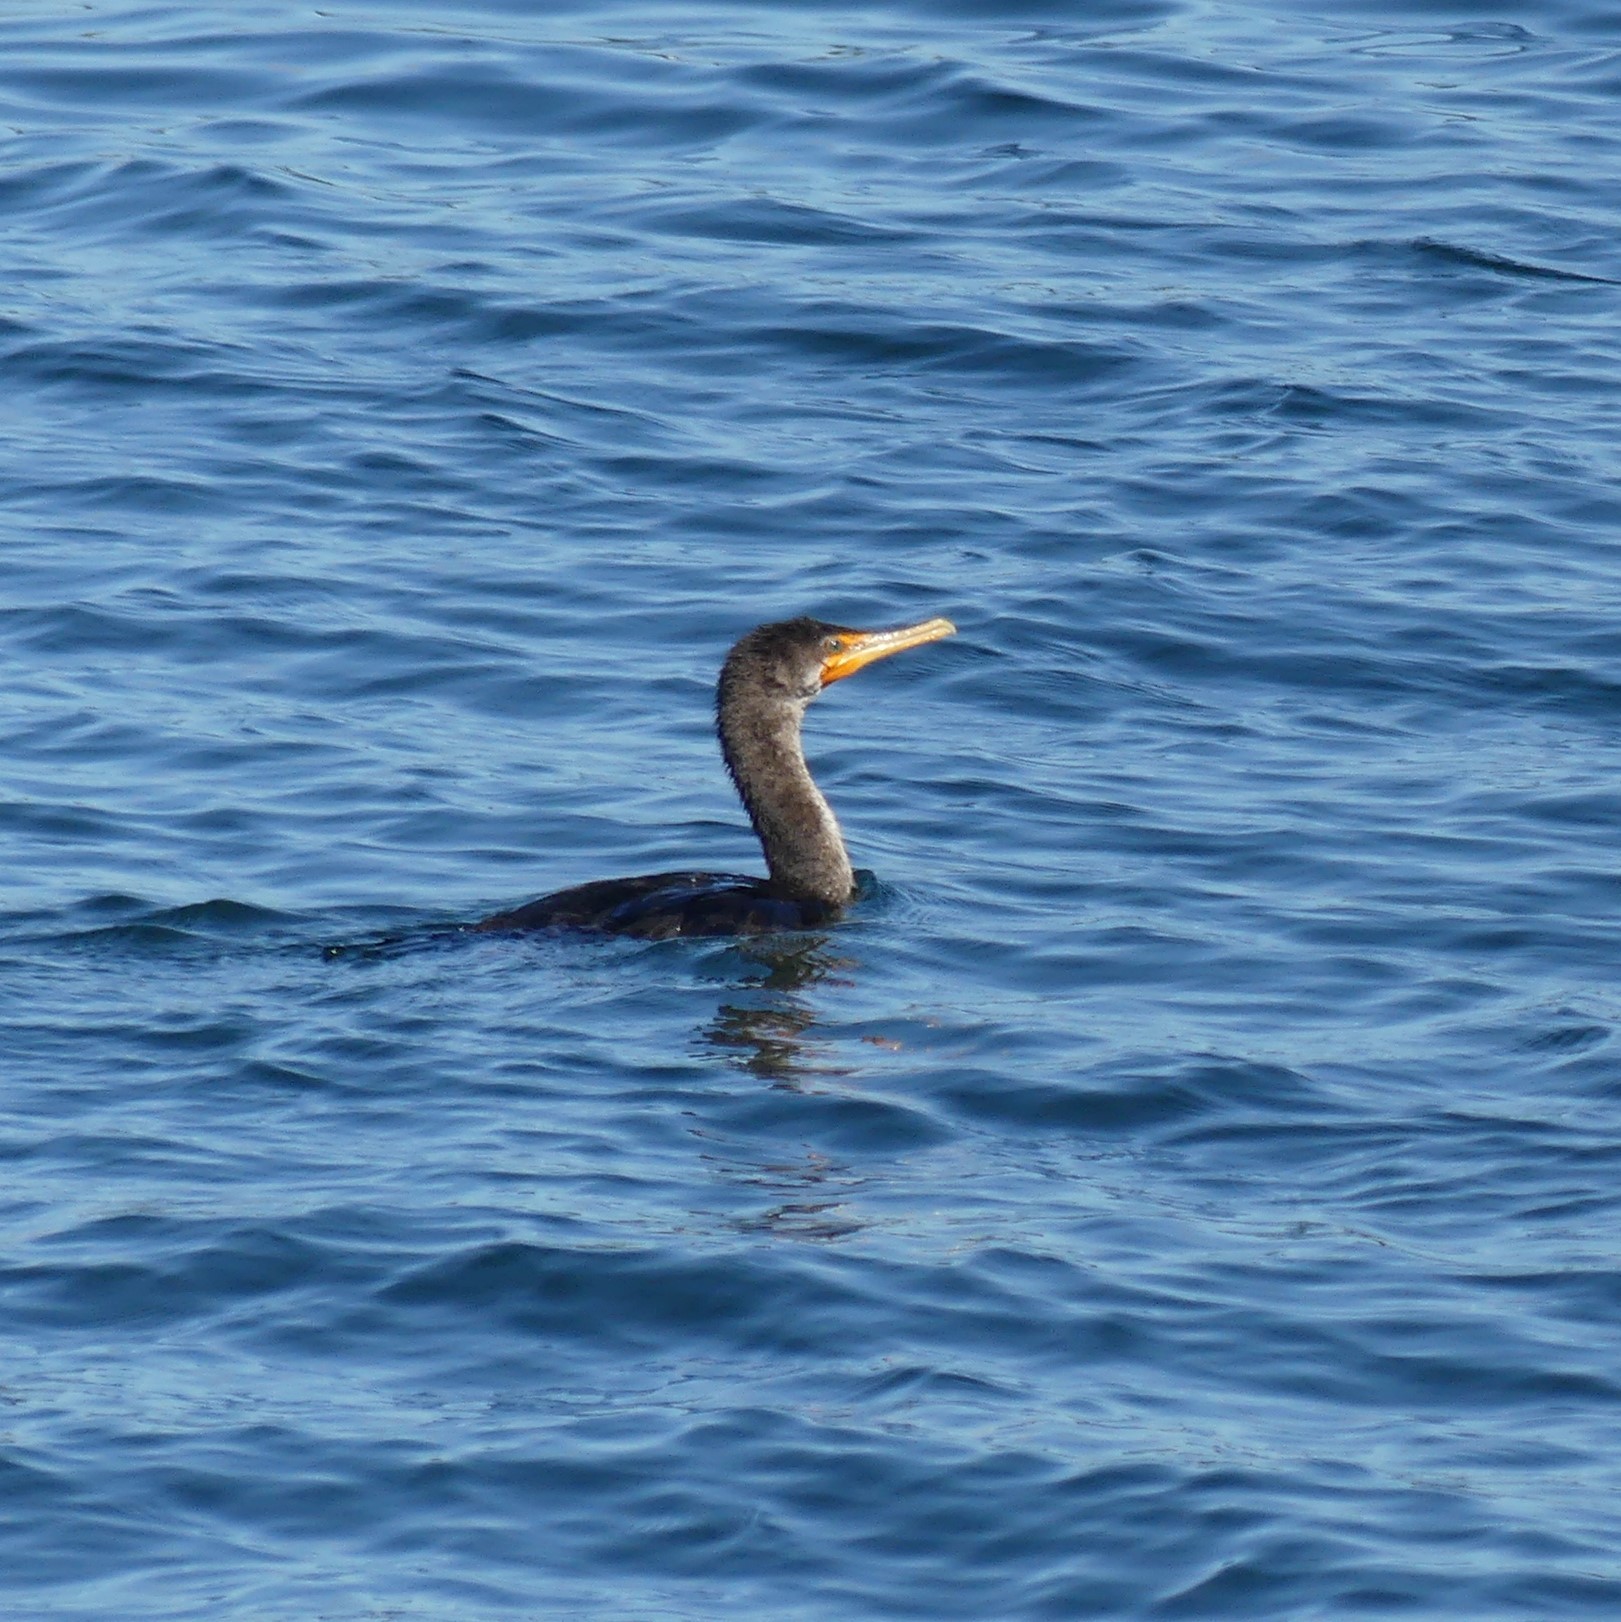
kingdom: Animalia
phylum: Chordata
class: Aves
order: Suliformes
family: Phalacrocoracidae
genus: Phalacrocorax
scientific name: Phalacrocorax auritus
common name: Double-crested cormorant
